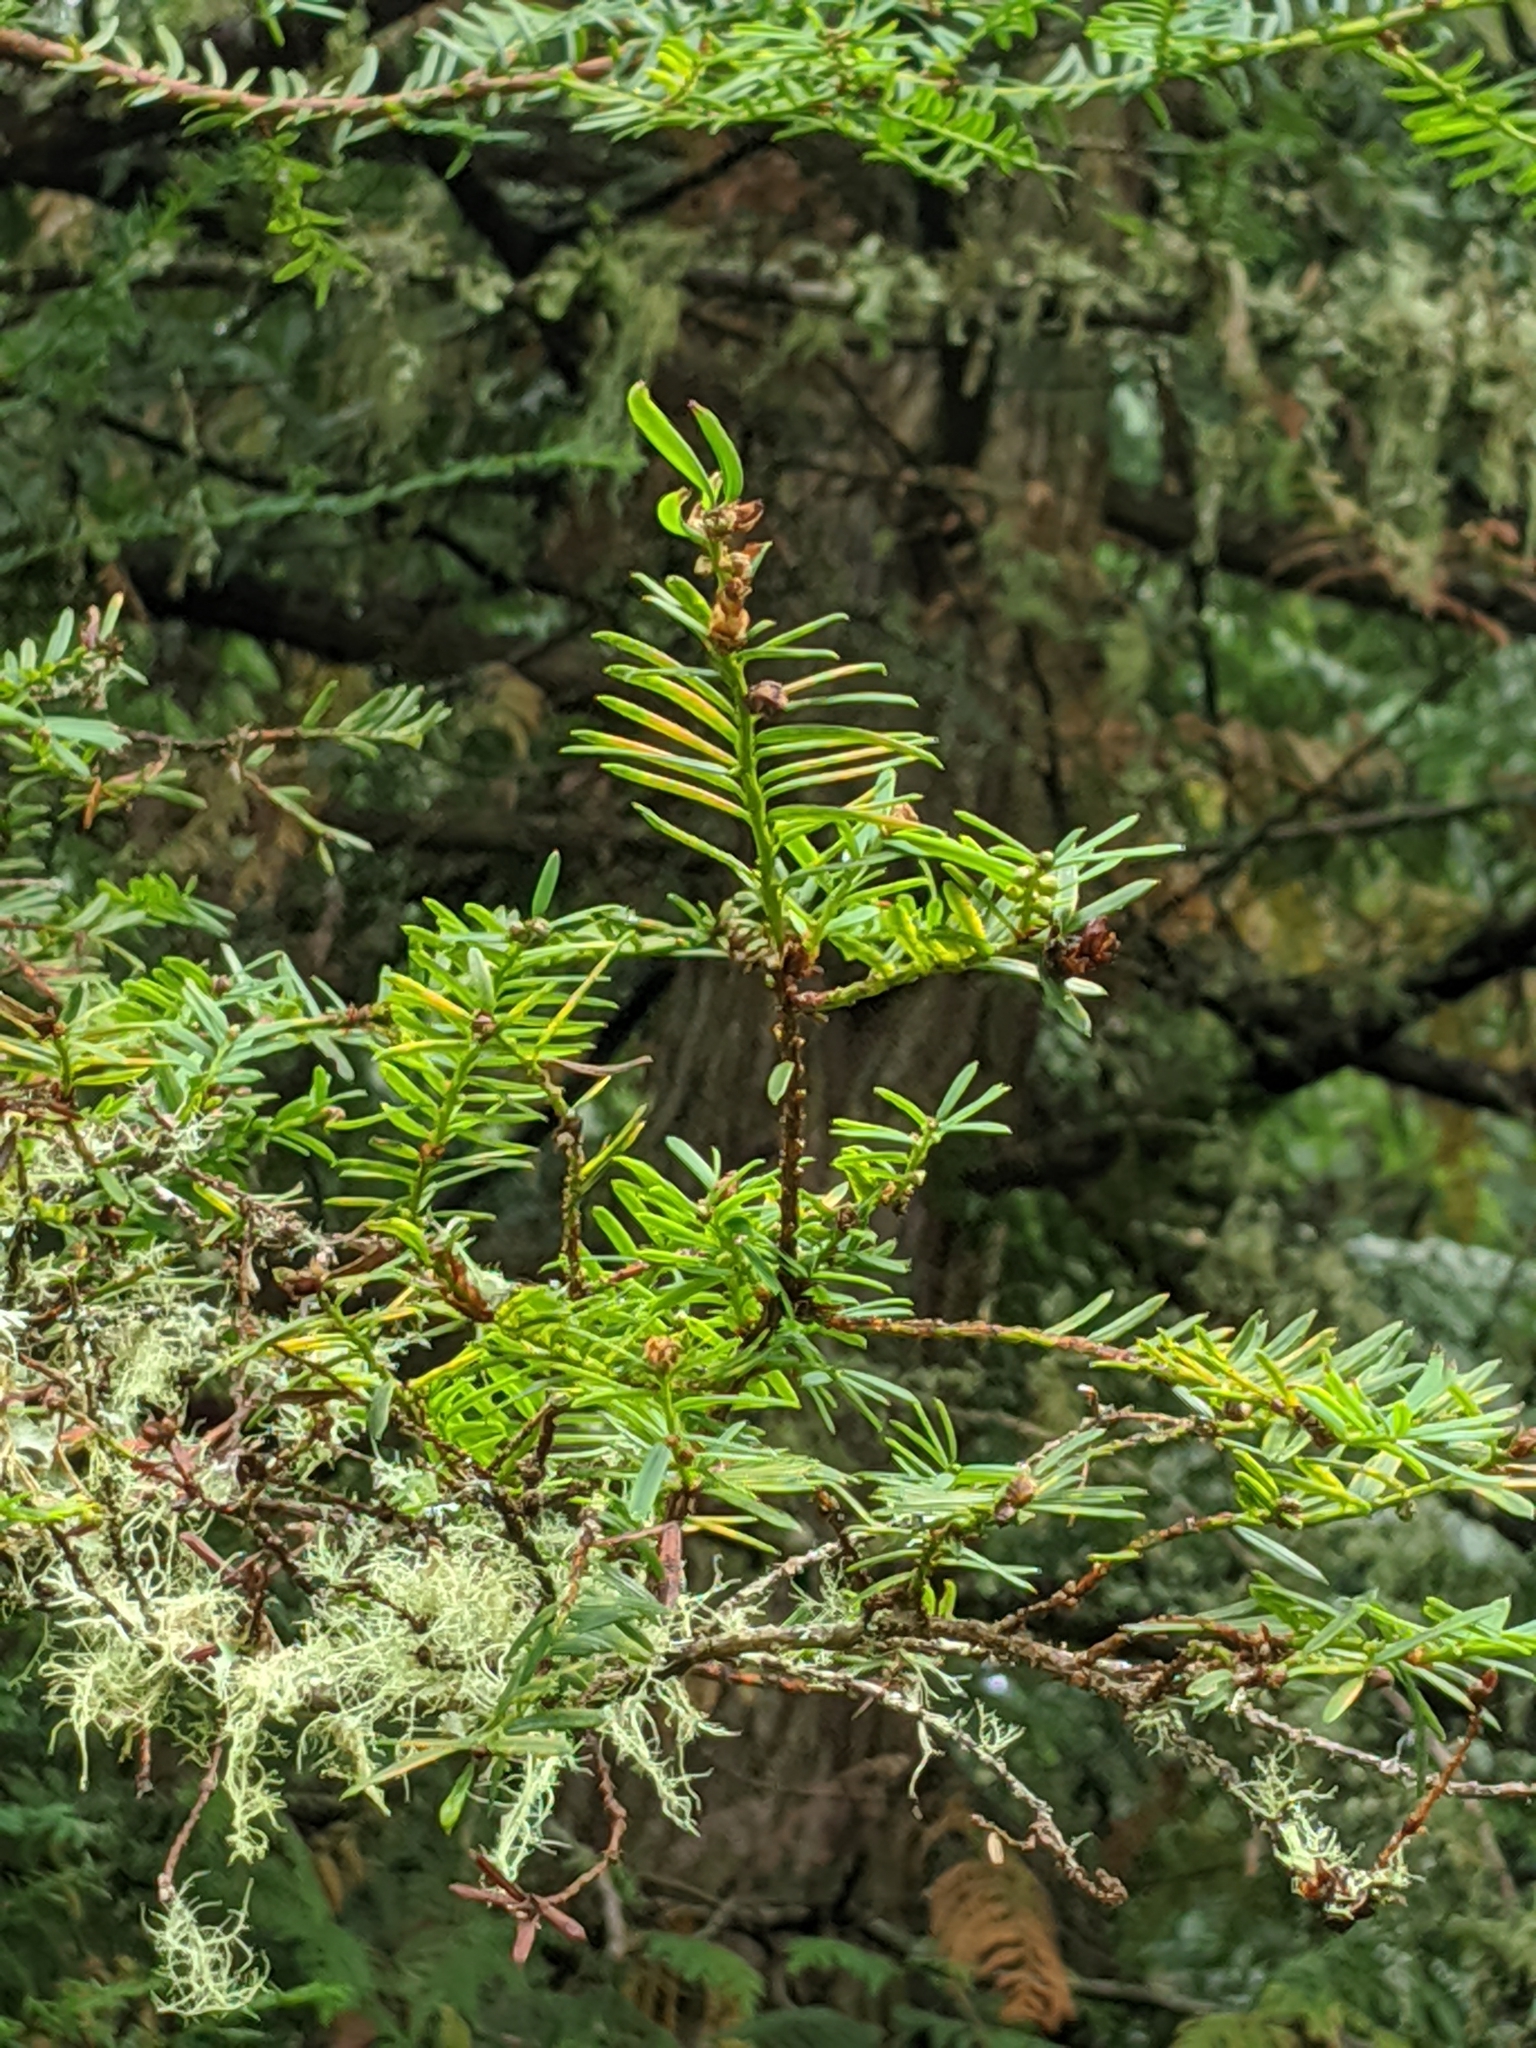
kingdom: Plantae
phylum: Tracheophyta
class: Pinopsida
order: Pinales
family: Taxaceae
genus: Taxus
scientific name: Taxus brevifolia
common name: Pacific yew
